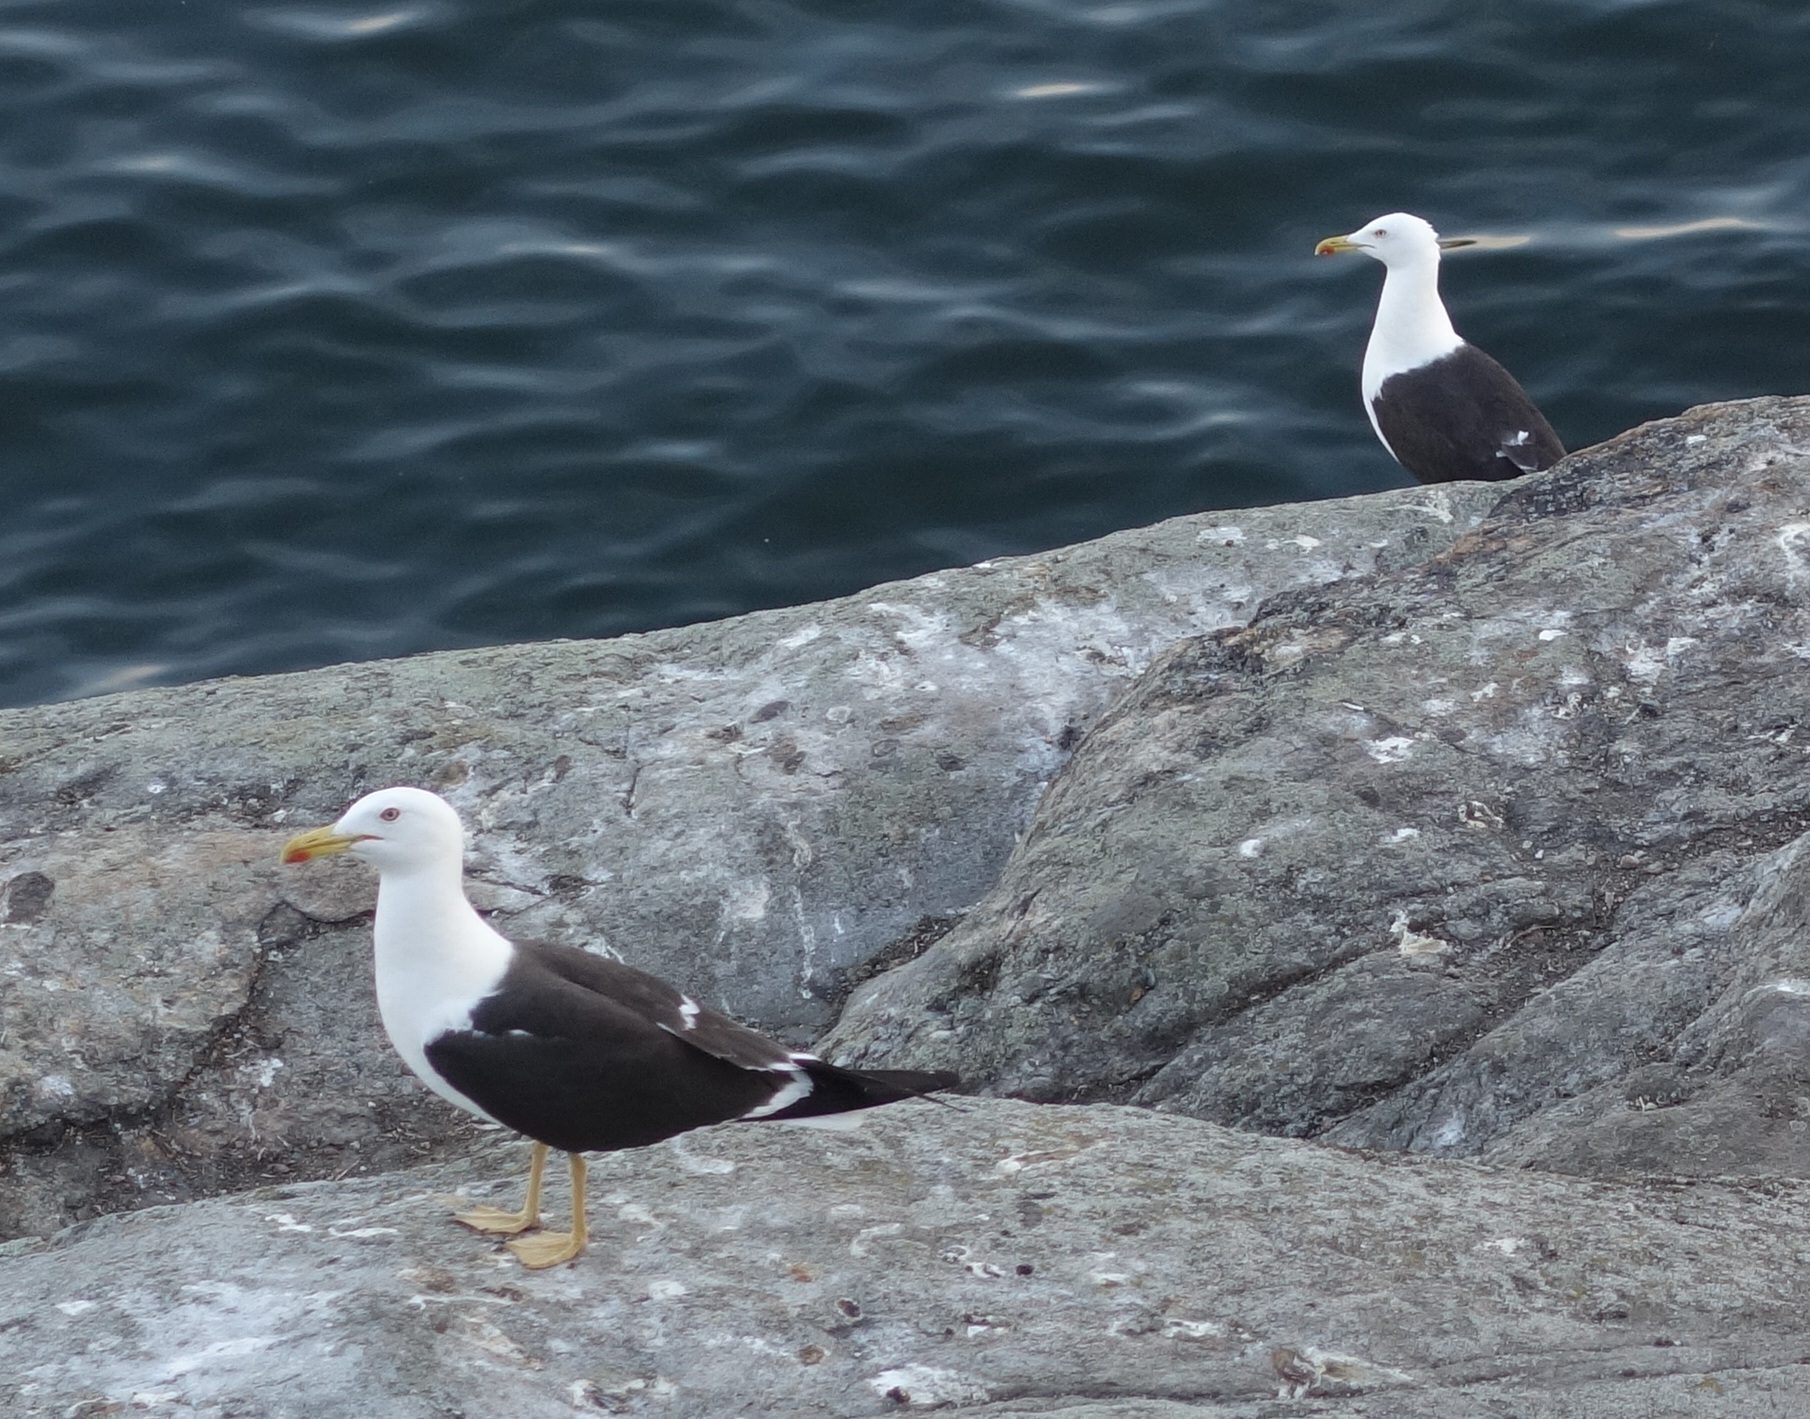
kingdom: Animalia
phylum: Chordata
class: Aves
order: Charadriiformes
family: Laridae
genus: Larus
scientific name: Larus fuscus
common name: Lesser black-backed gull
